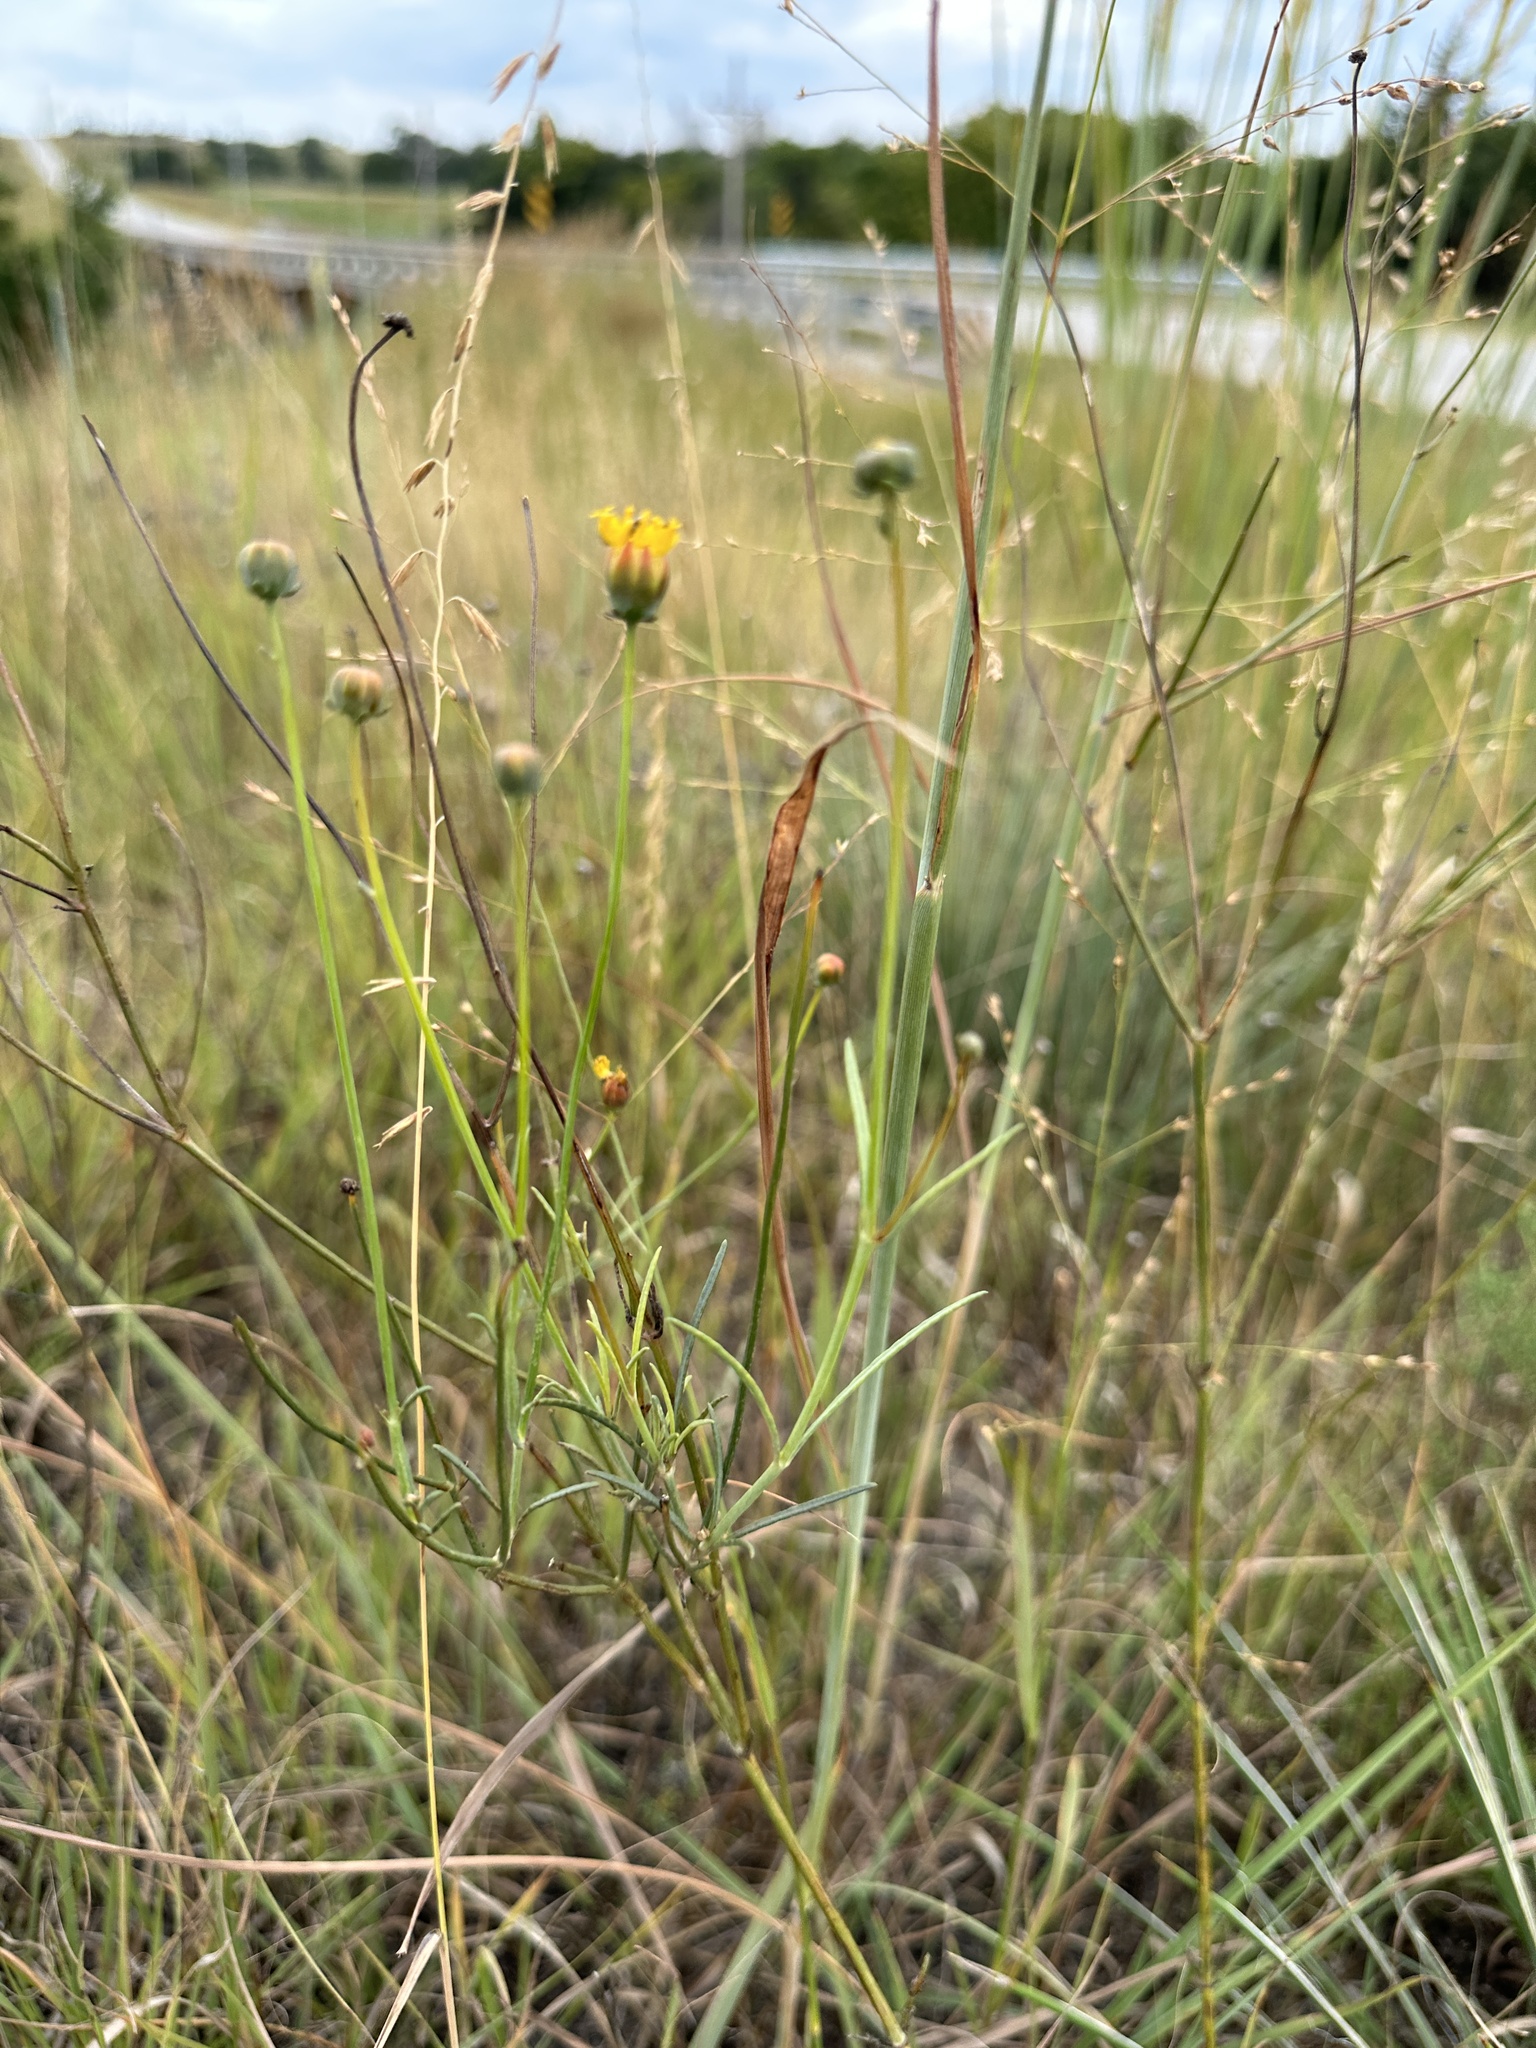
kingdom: Plantae
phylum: Tracheophyta
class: Magnoliopsida
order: Asterales
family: Asteraceae
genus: Thelesperma
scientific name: Thelesperma megapotamicum
